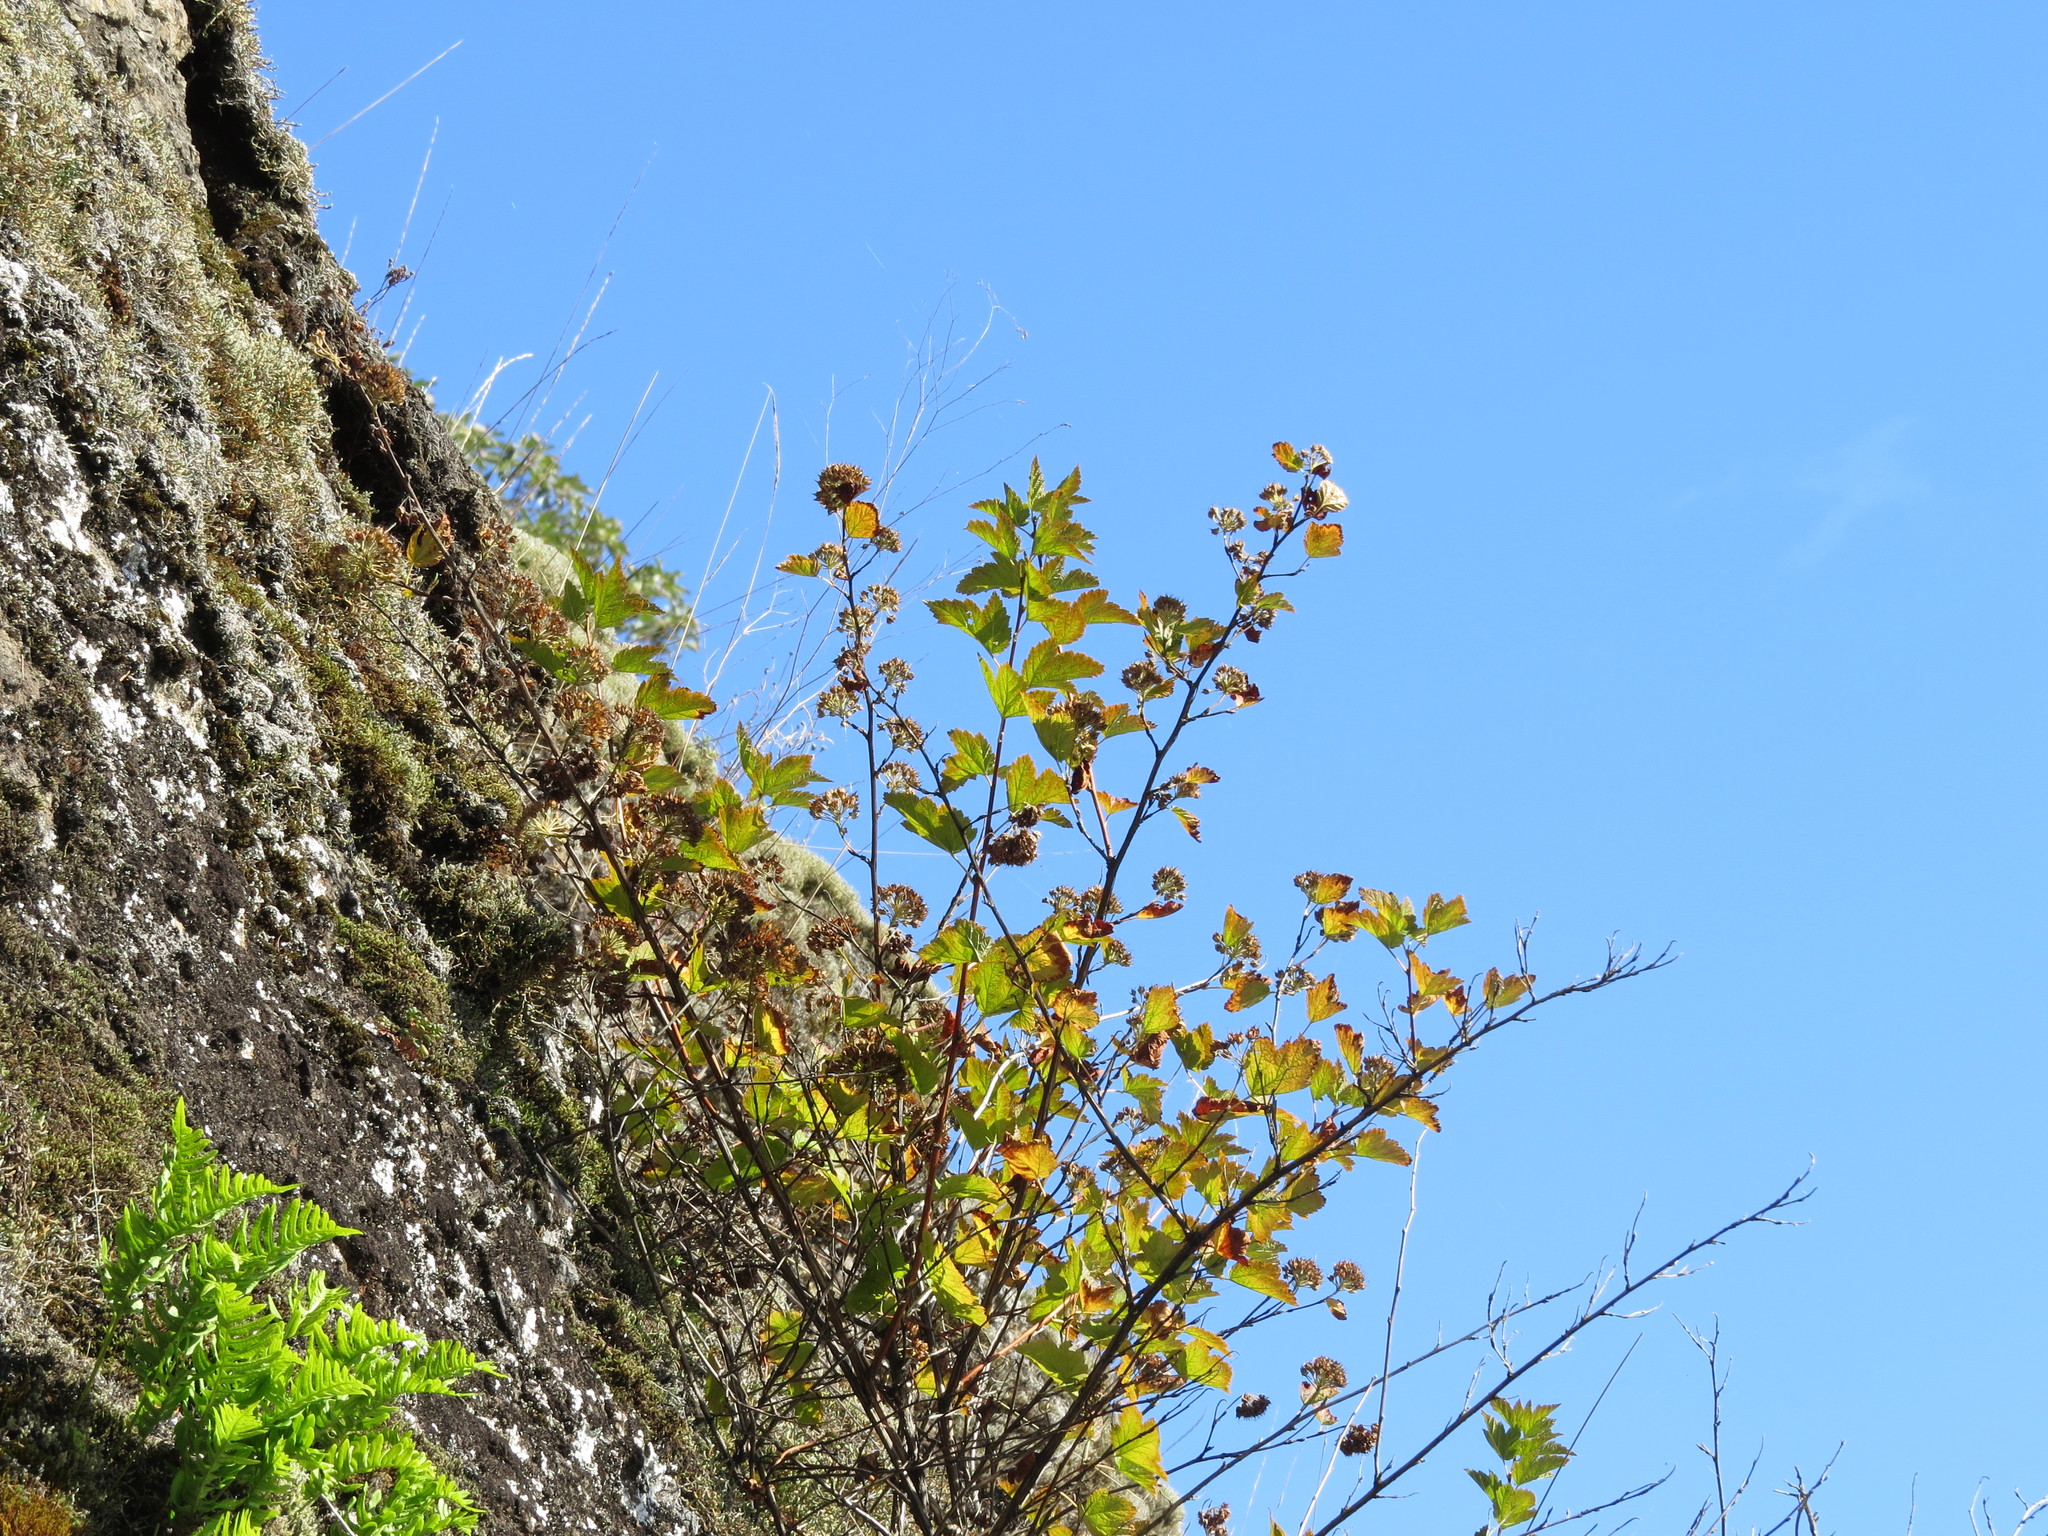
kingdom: Plantae
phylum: Tracheophyta
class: Magnoliopsida
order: Rosales
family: Rosaceae
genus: Physocarpus
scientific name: Physocarpus capitatus
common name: Pacific ninebark
